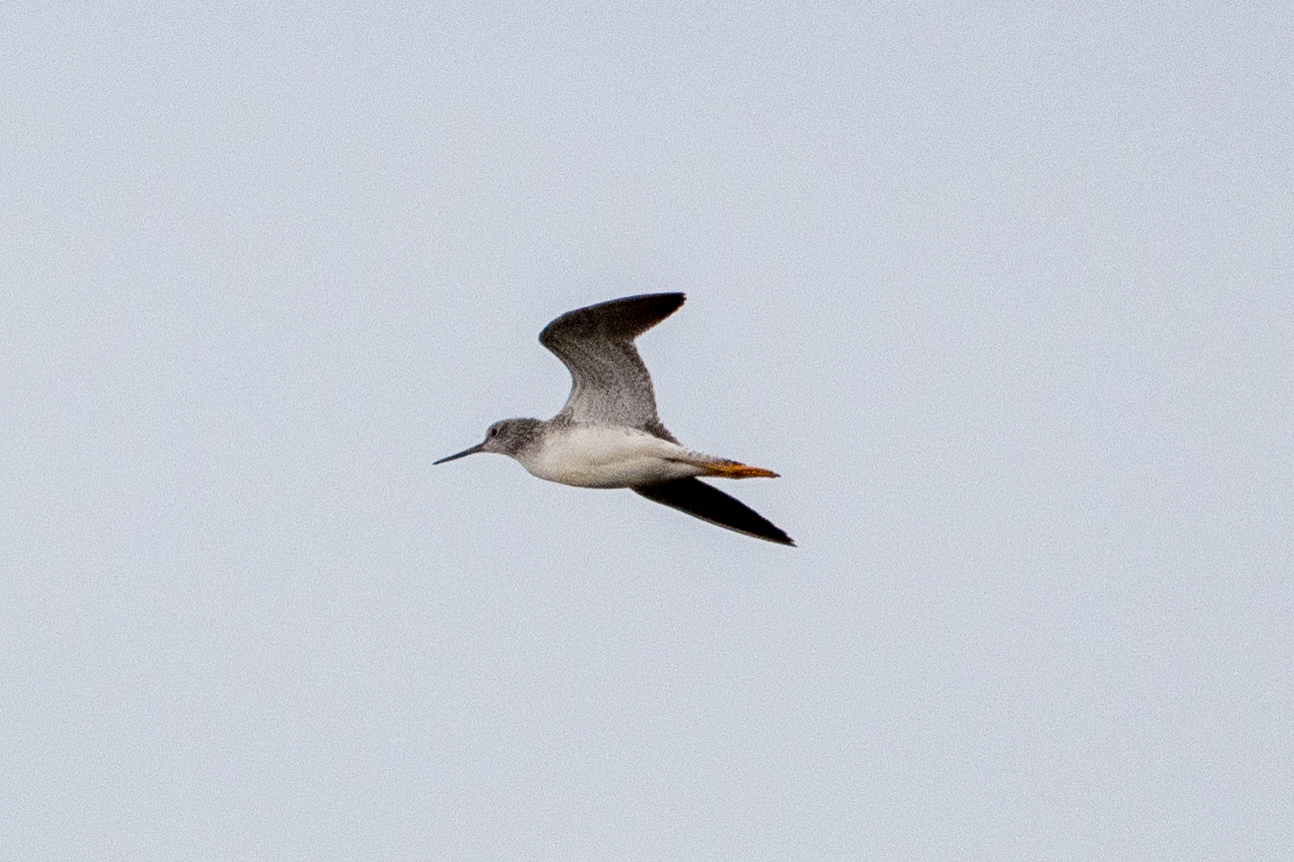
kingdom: Animalia
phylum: Chordata
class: Aves
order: Charadriiformes
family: Scolopacidae
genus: Tringa
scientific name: Tringa melanoleuca
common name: Greater yellowlegs
